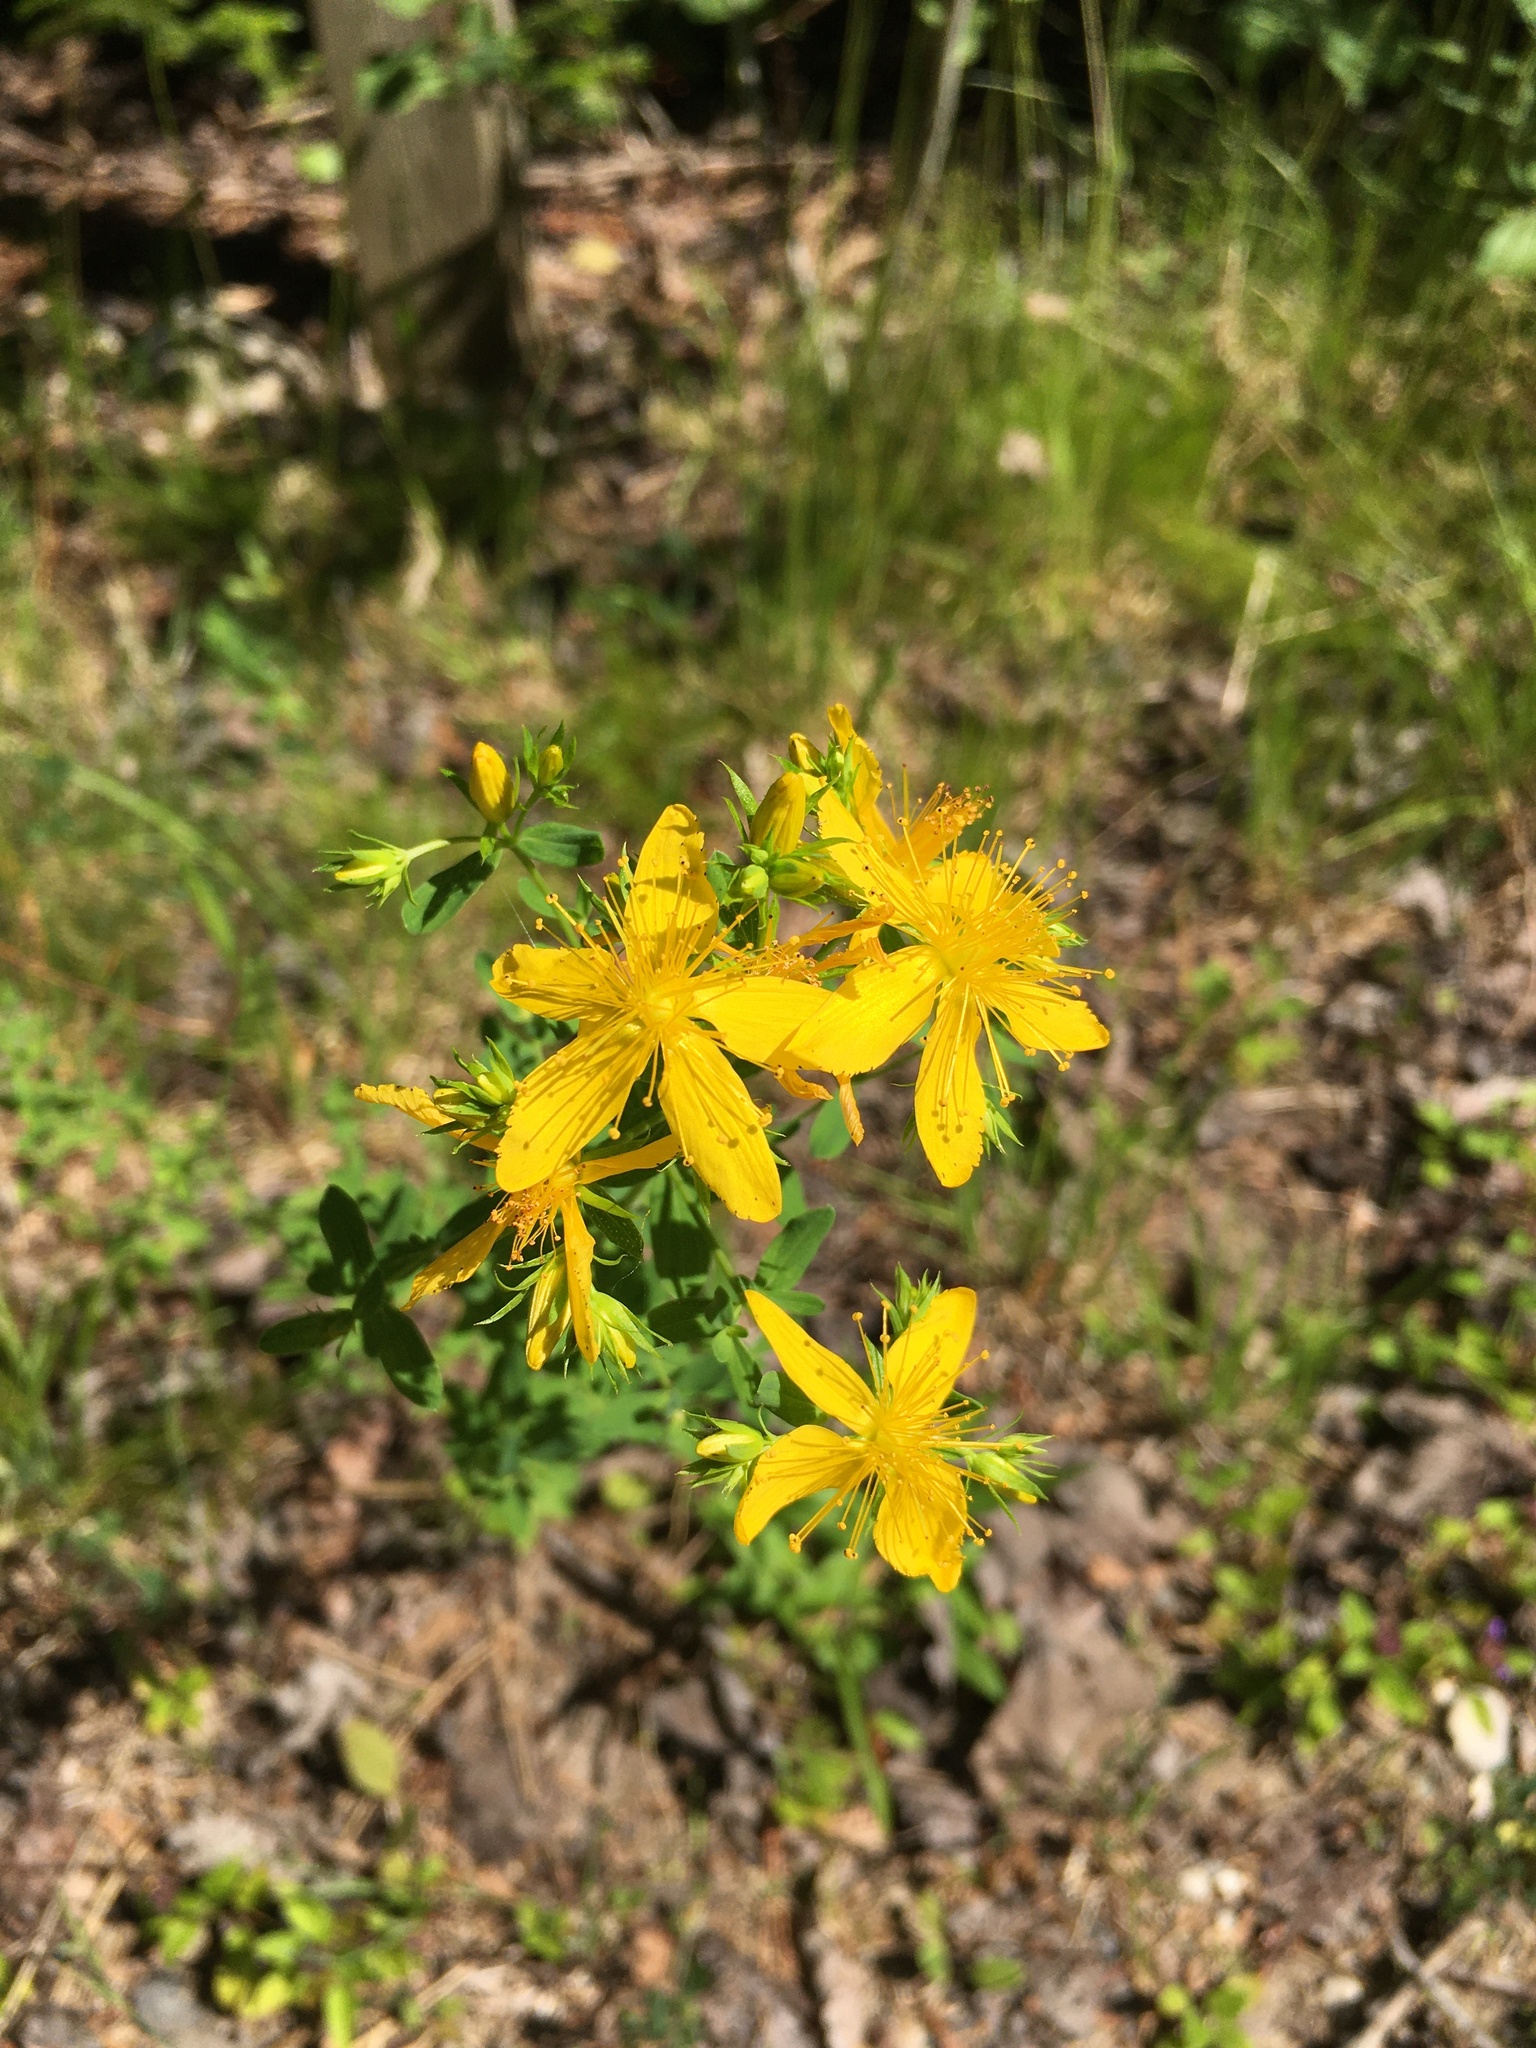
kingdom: Plantae
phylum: Tracheophyta
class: Magnoliopsida
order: Malpighiales
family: Hypericaceae
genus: Hypericum
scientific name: Hypericum perforatum
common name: Common st. johnswort
